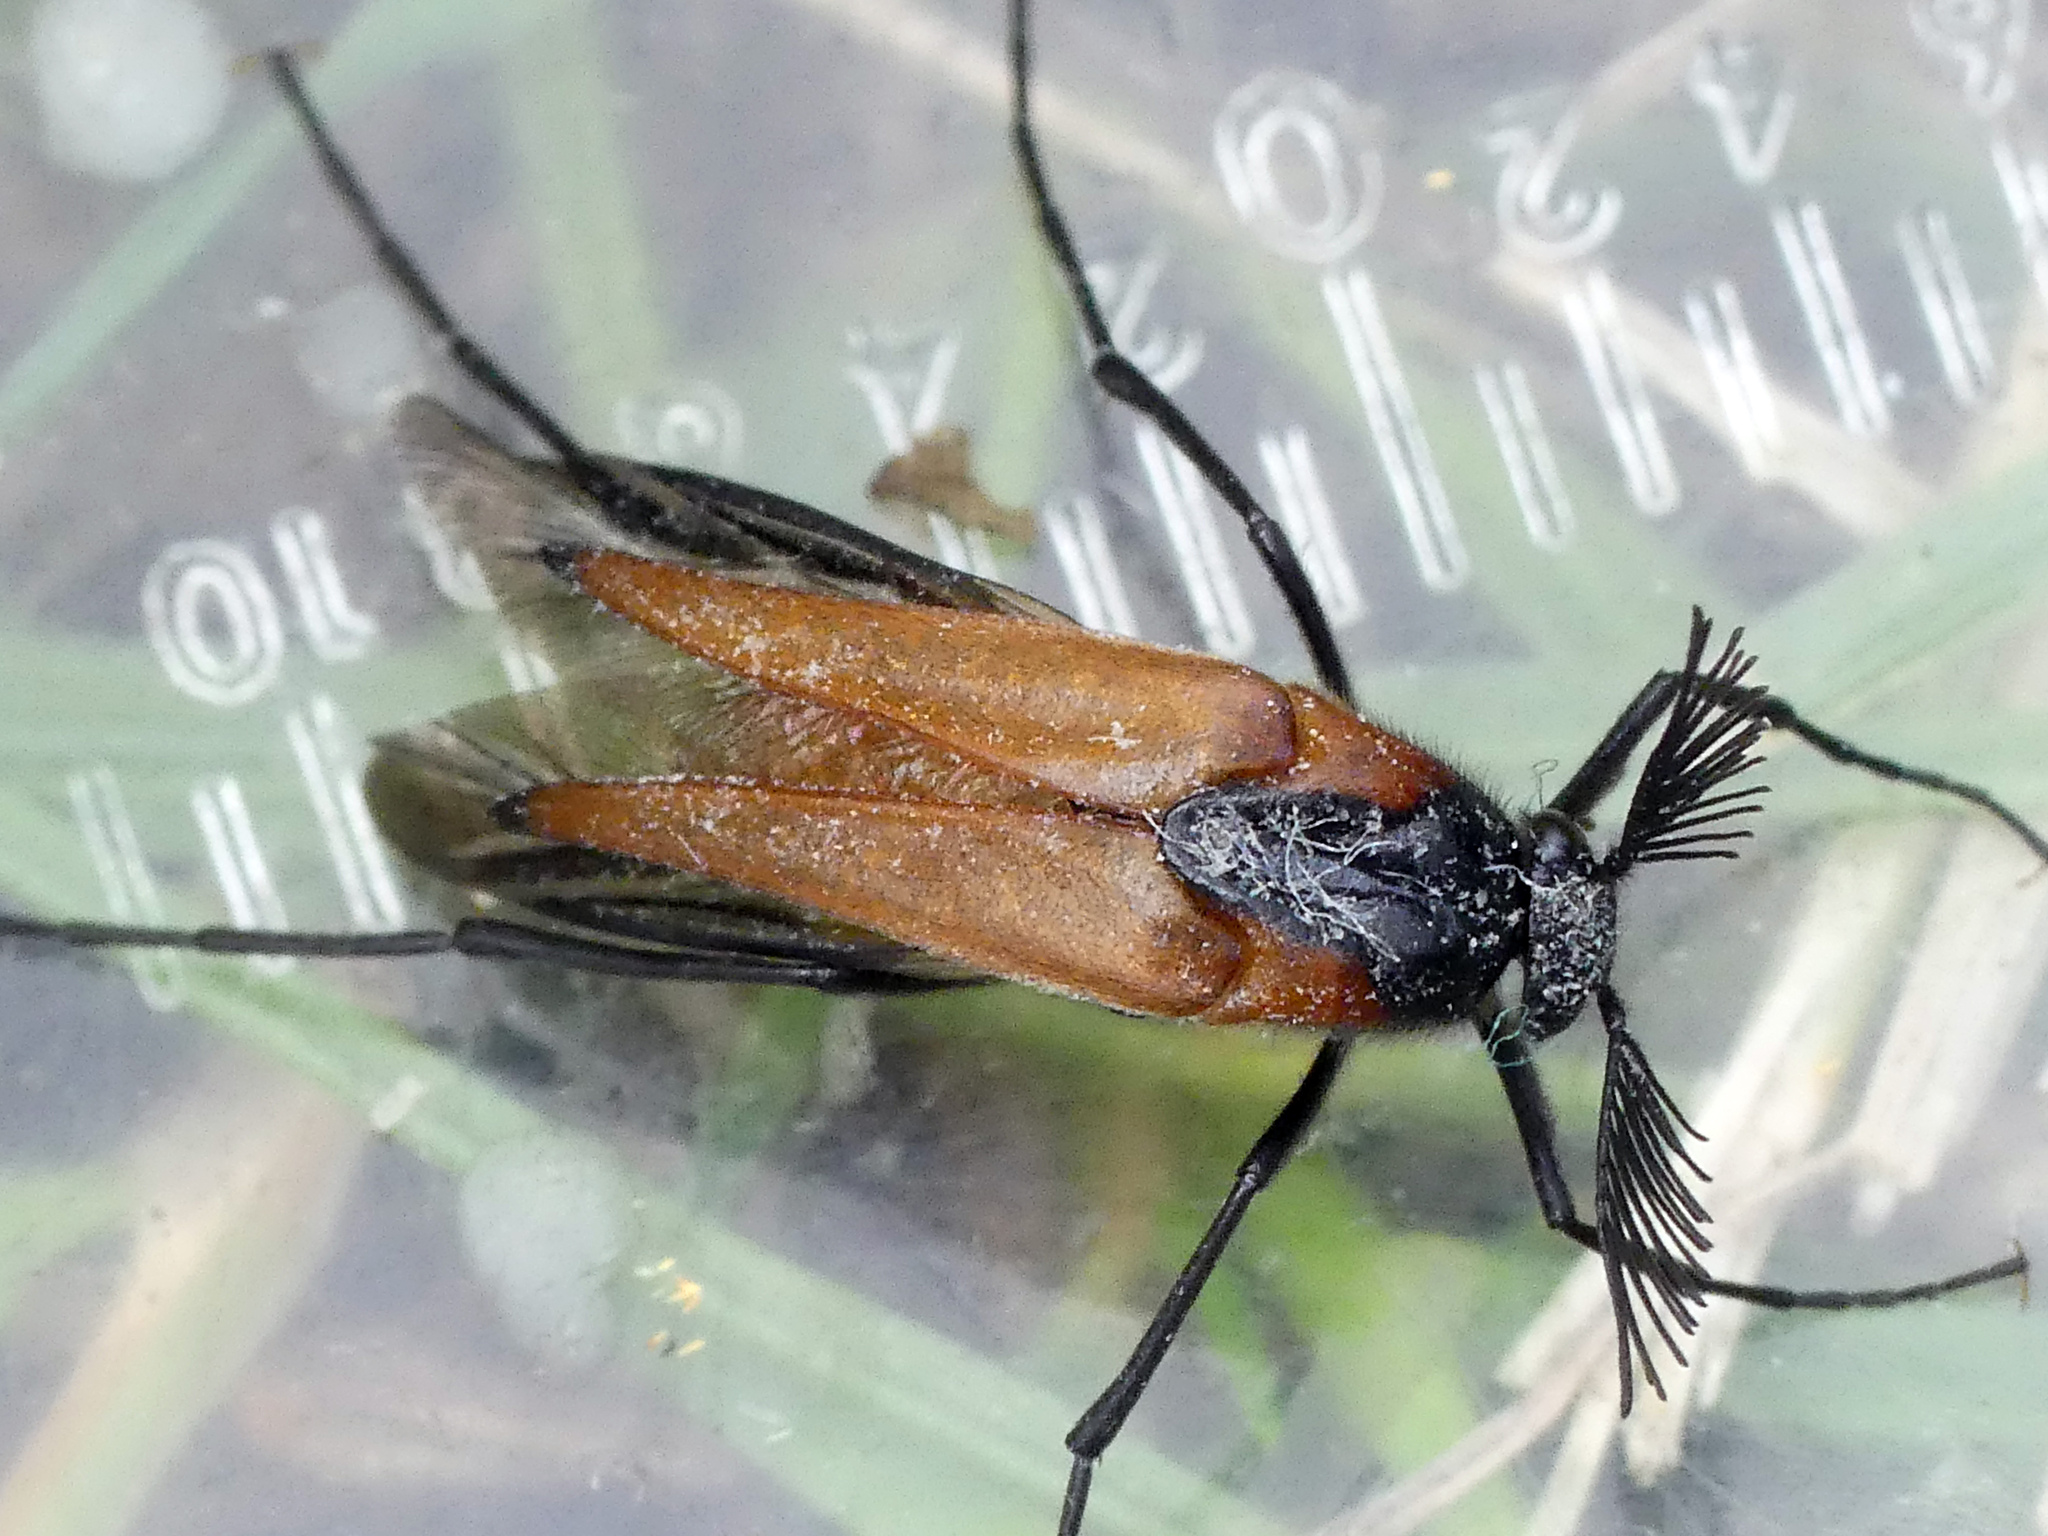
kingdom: Animalia
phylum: Arthropoda
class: Insecta
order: Coleoptera
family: Ripiphoridae
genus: Metoecus
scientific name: Metoecus paradoxus
